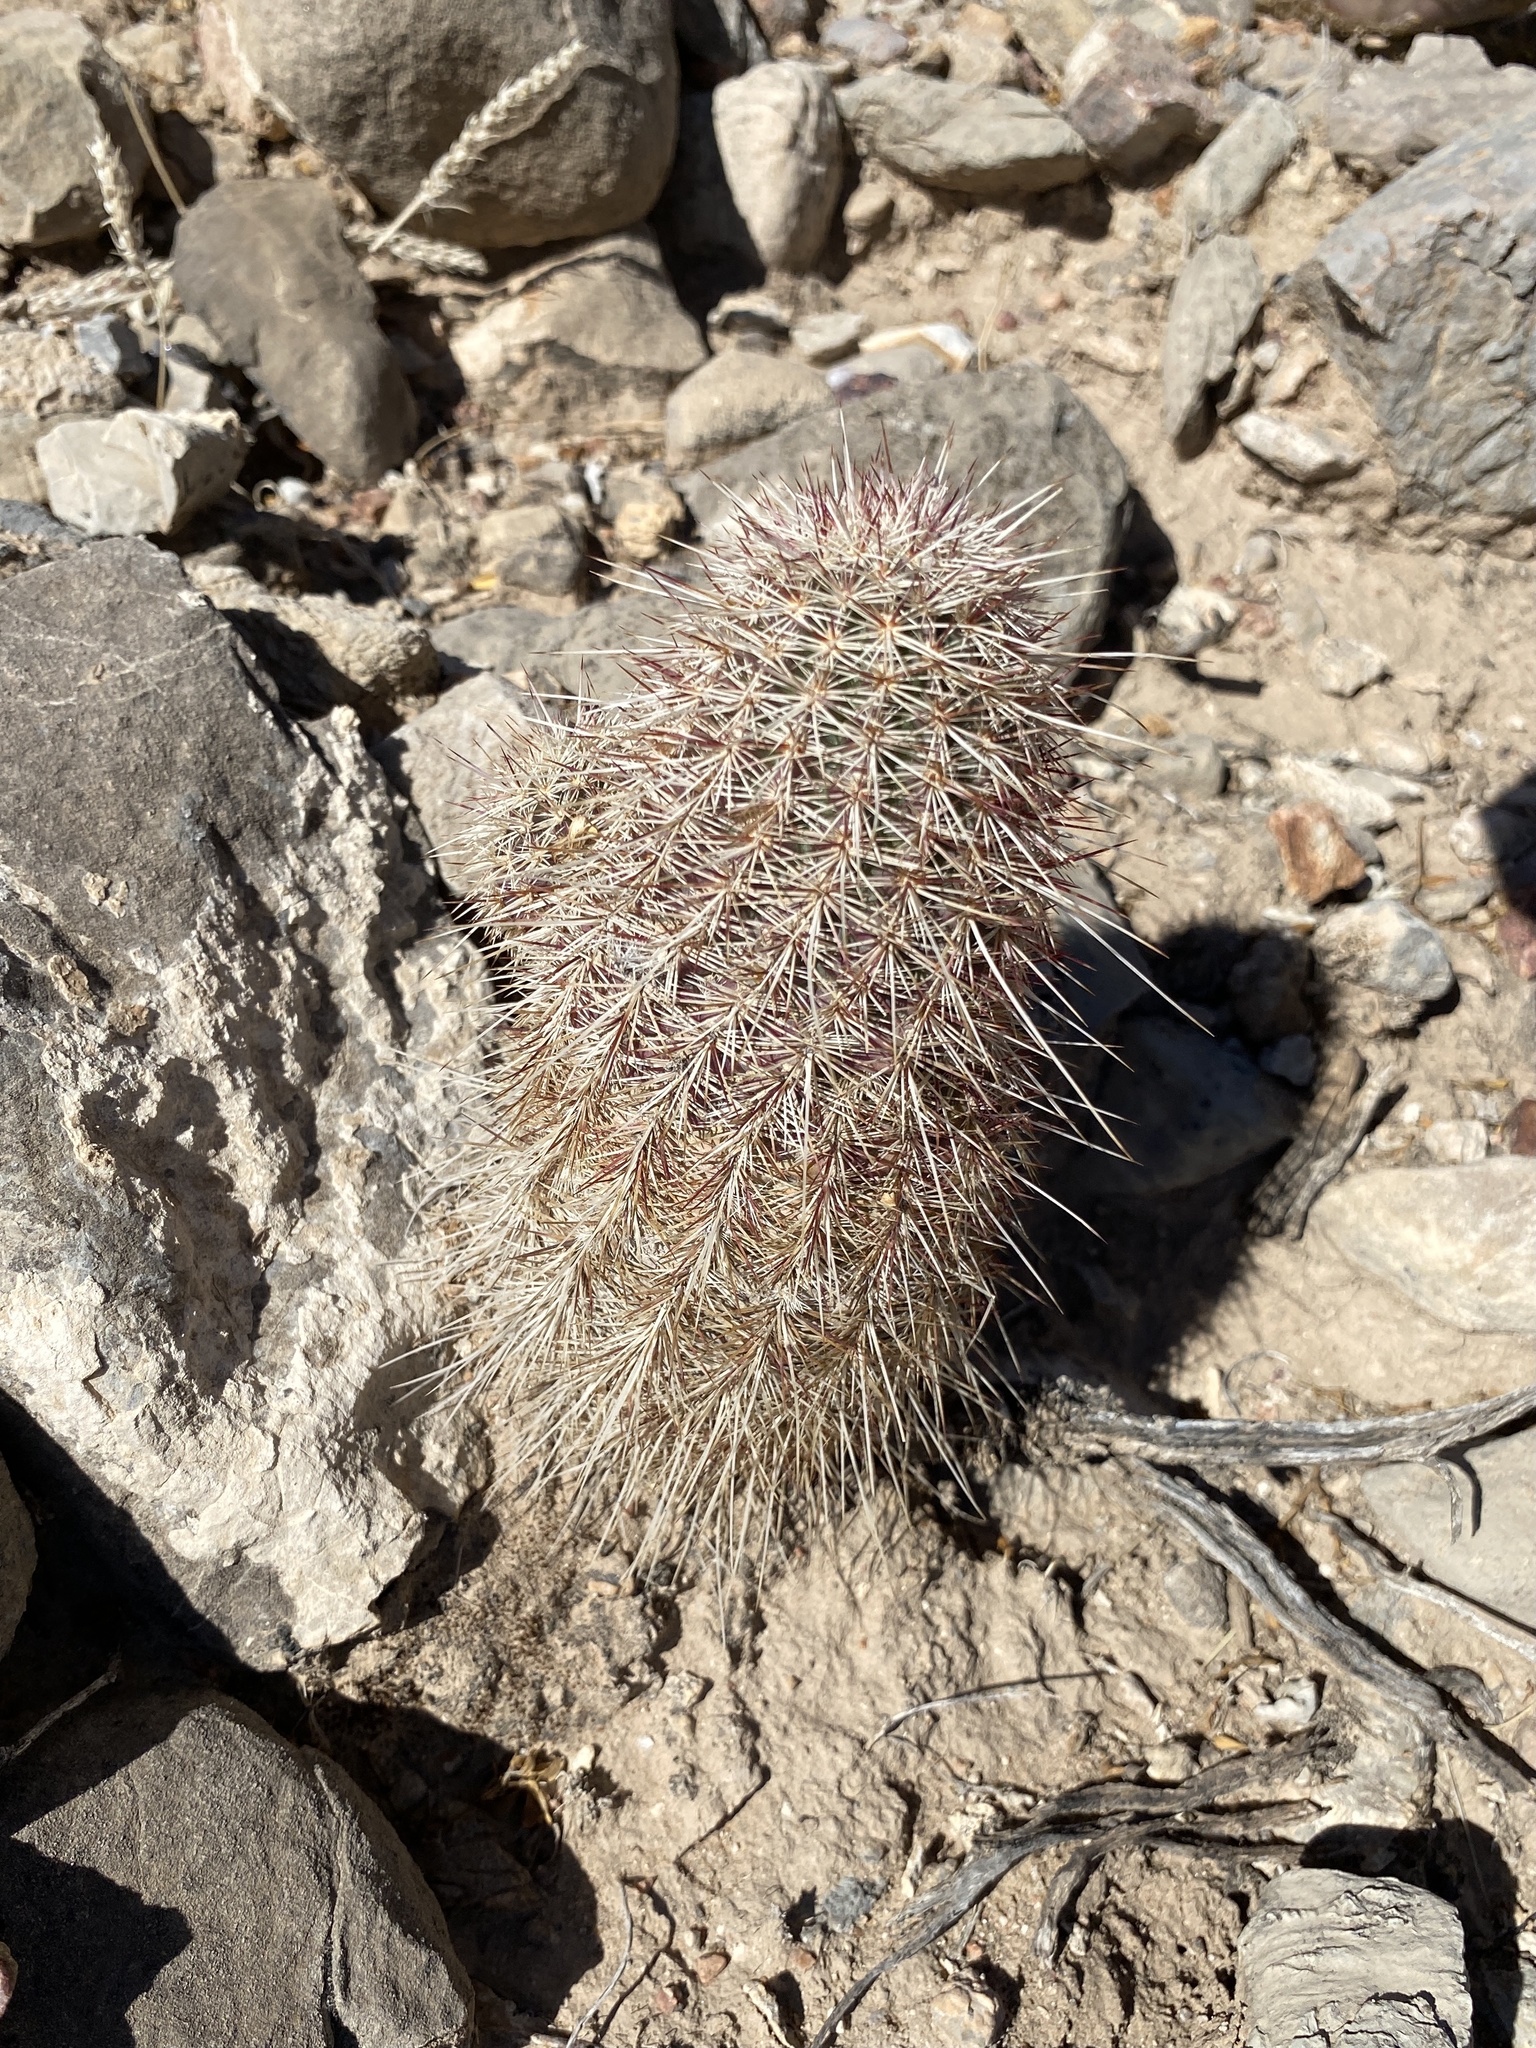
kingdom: Plantae
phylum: Tracheophyta
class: Magnoliopsida
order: Caryophyllales
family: Cactaceae
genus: Echinocereus
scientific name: Echinocereus viridiflorus
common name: Nylon hedgehog cactus
